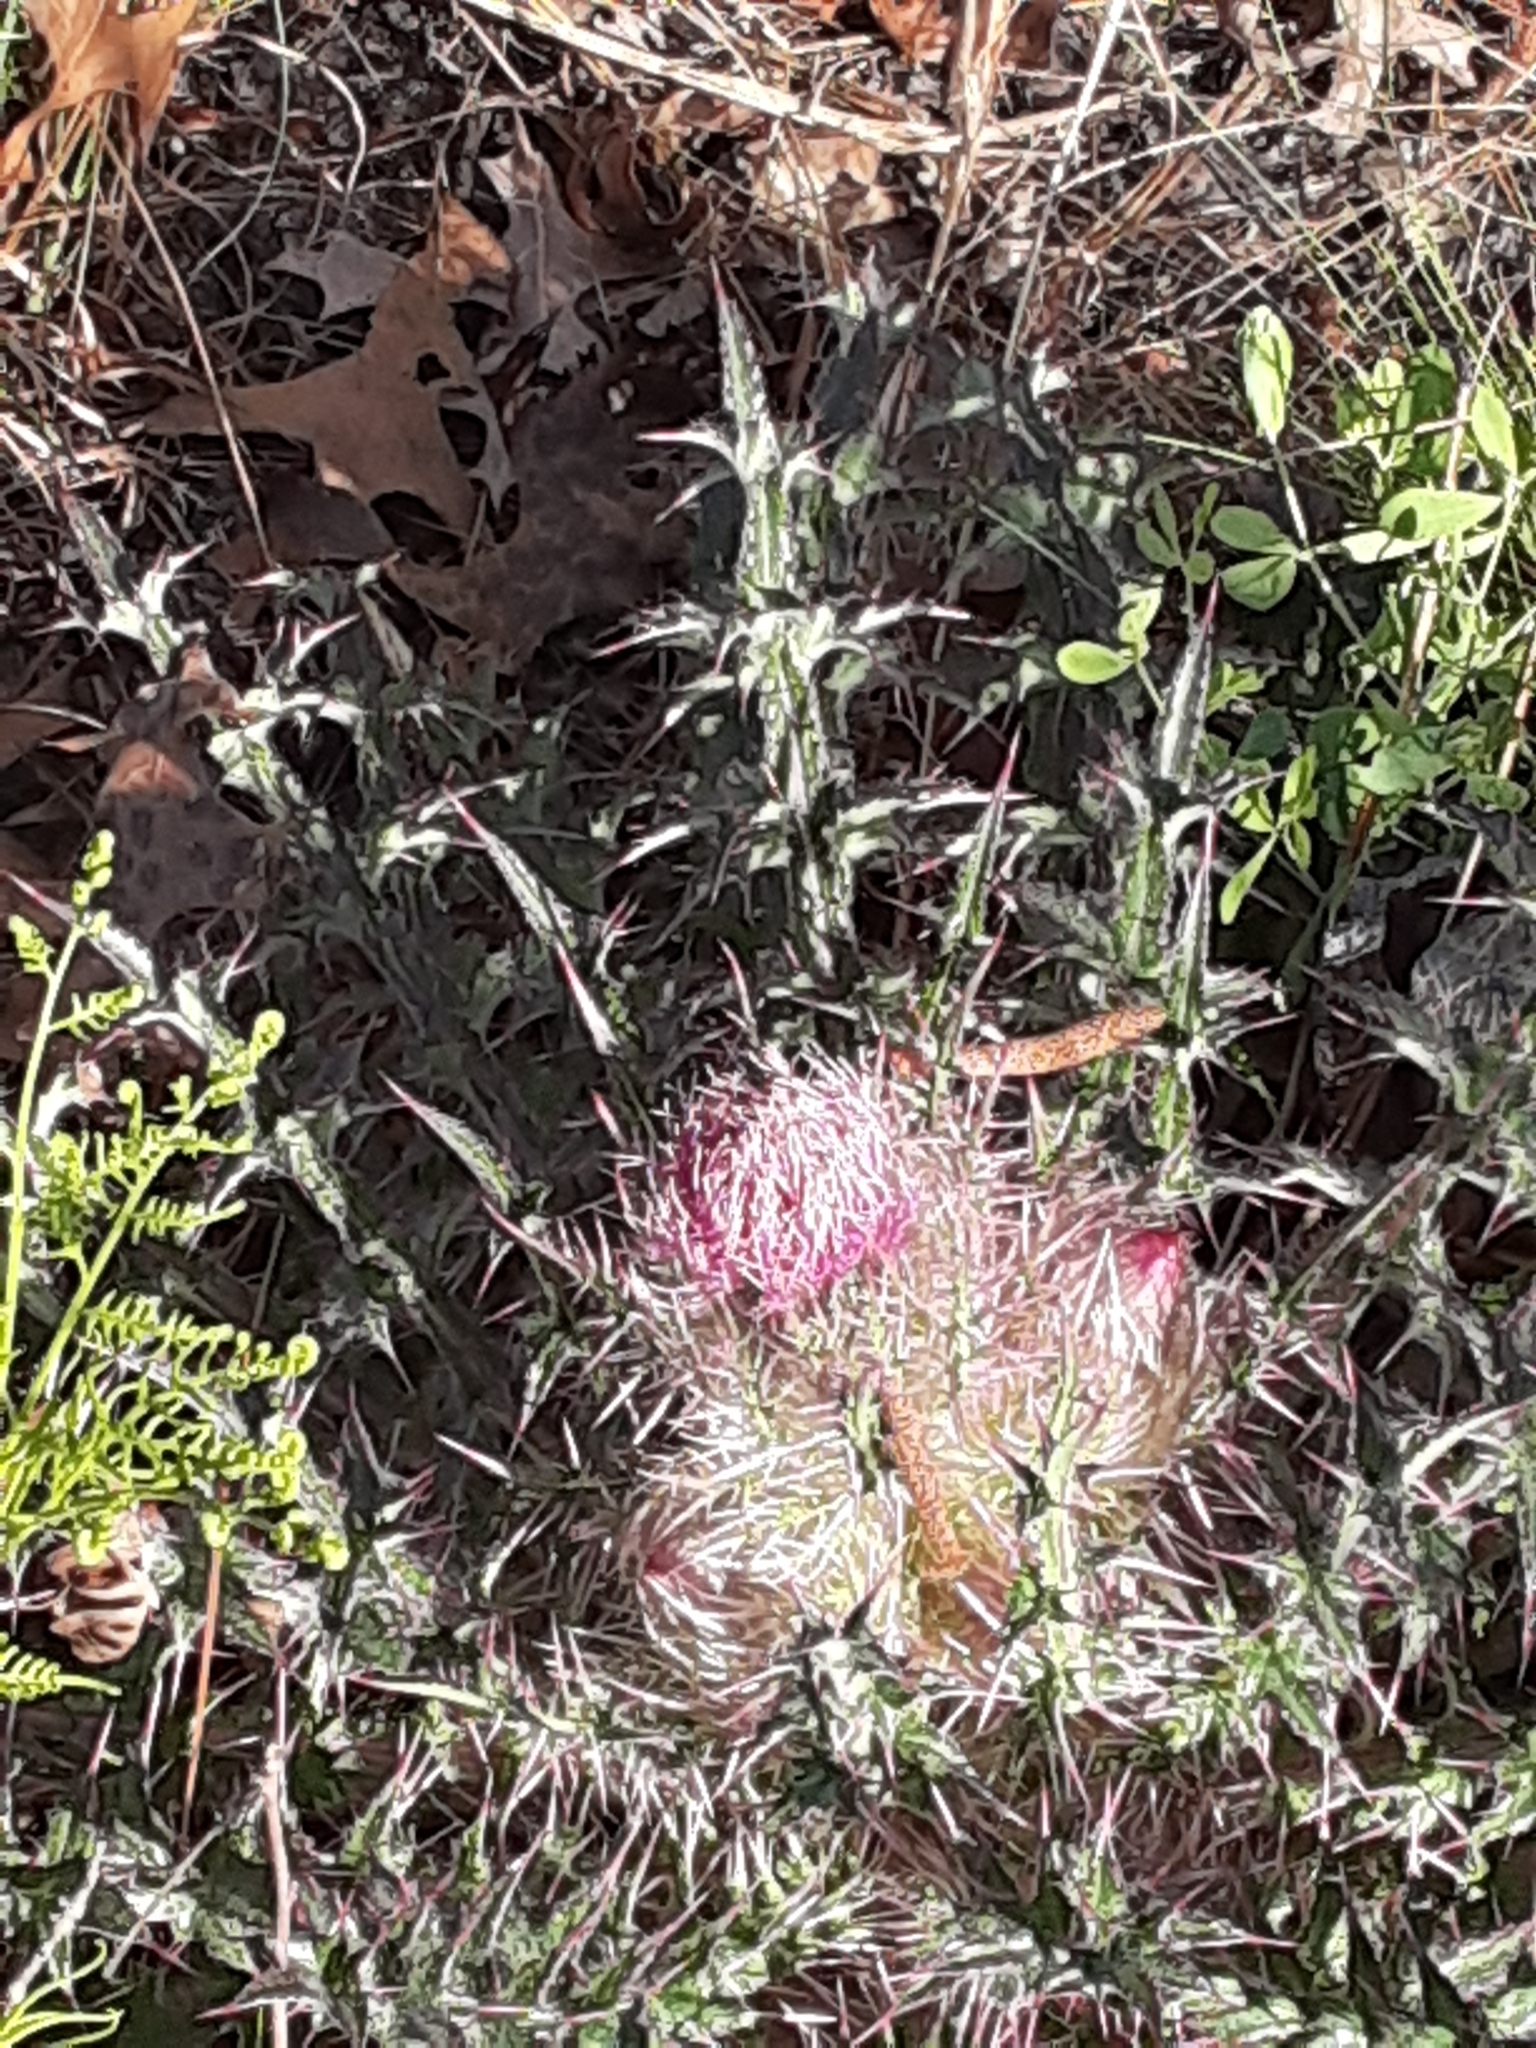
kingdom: Plantae
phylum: Tracheophyta
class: Magnoliopsida
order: Asterales
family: Asteraceae
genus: Cirsium
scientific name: Cirsium horridulum
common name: Bristly thistle
